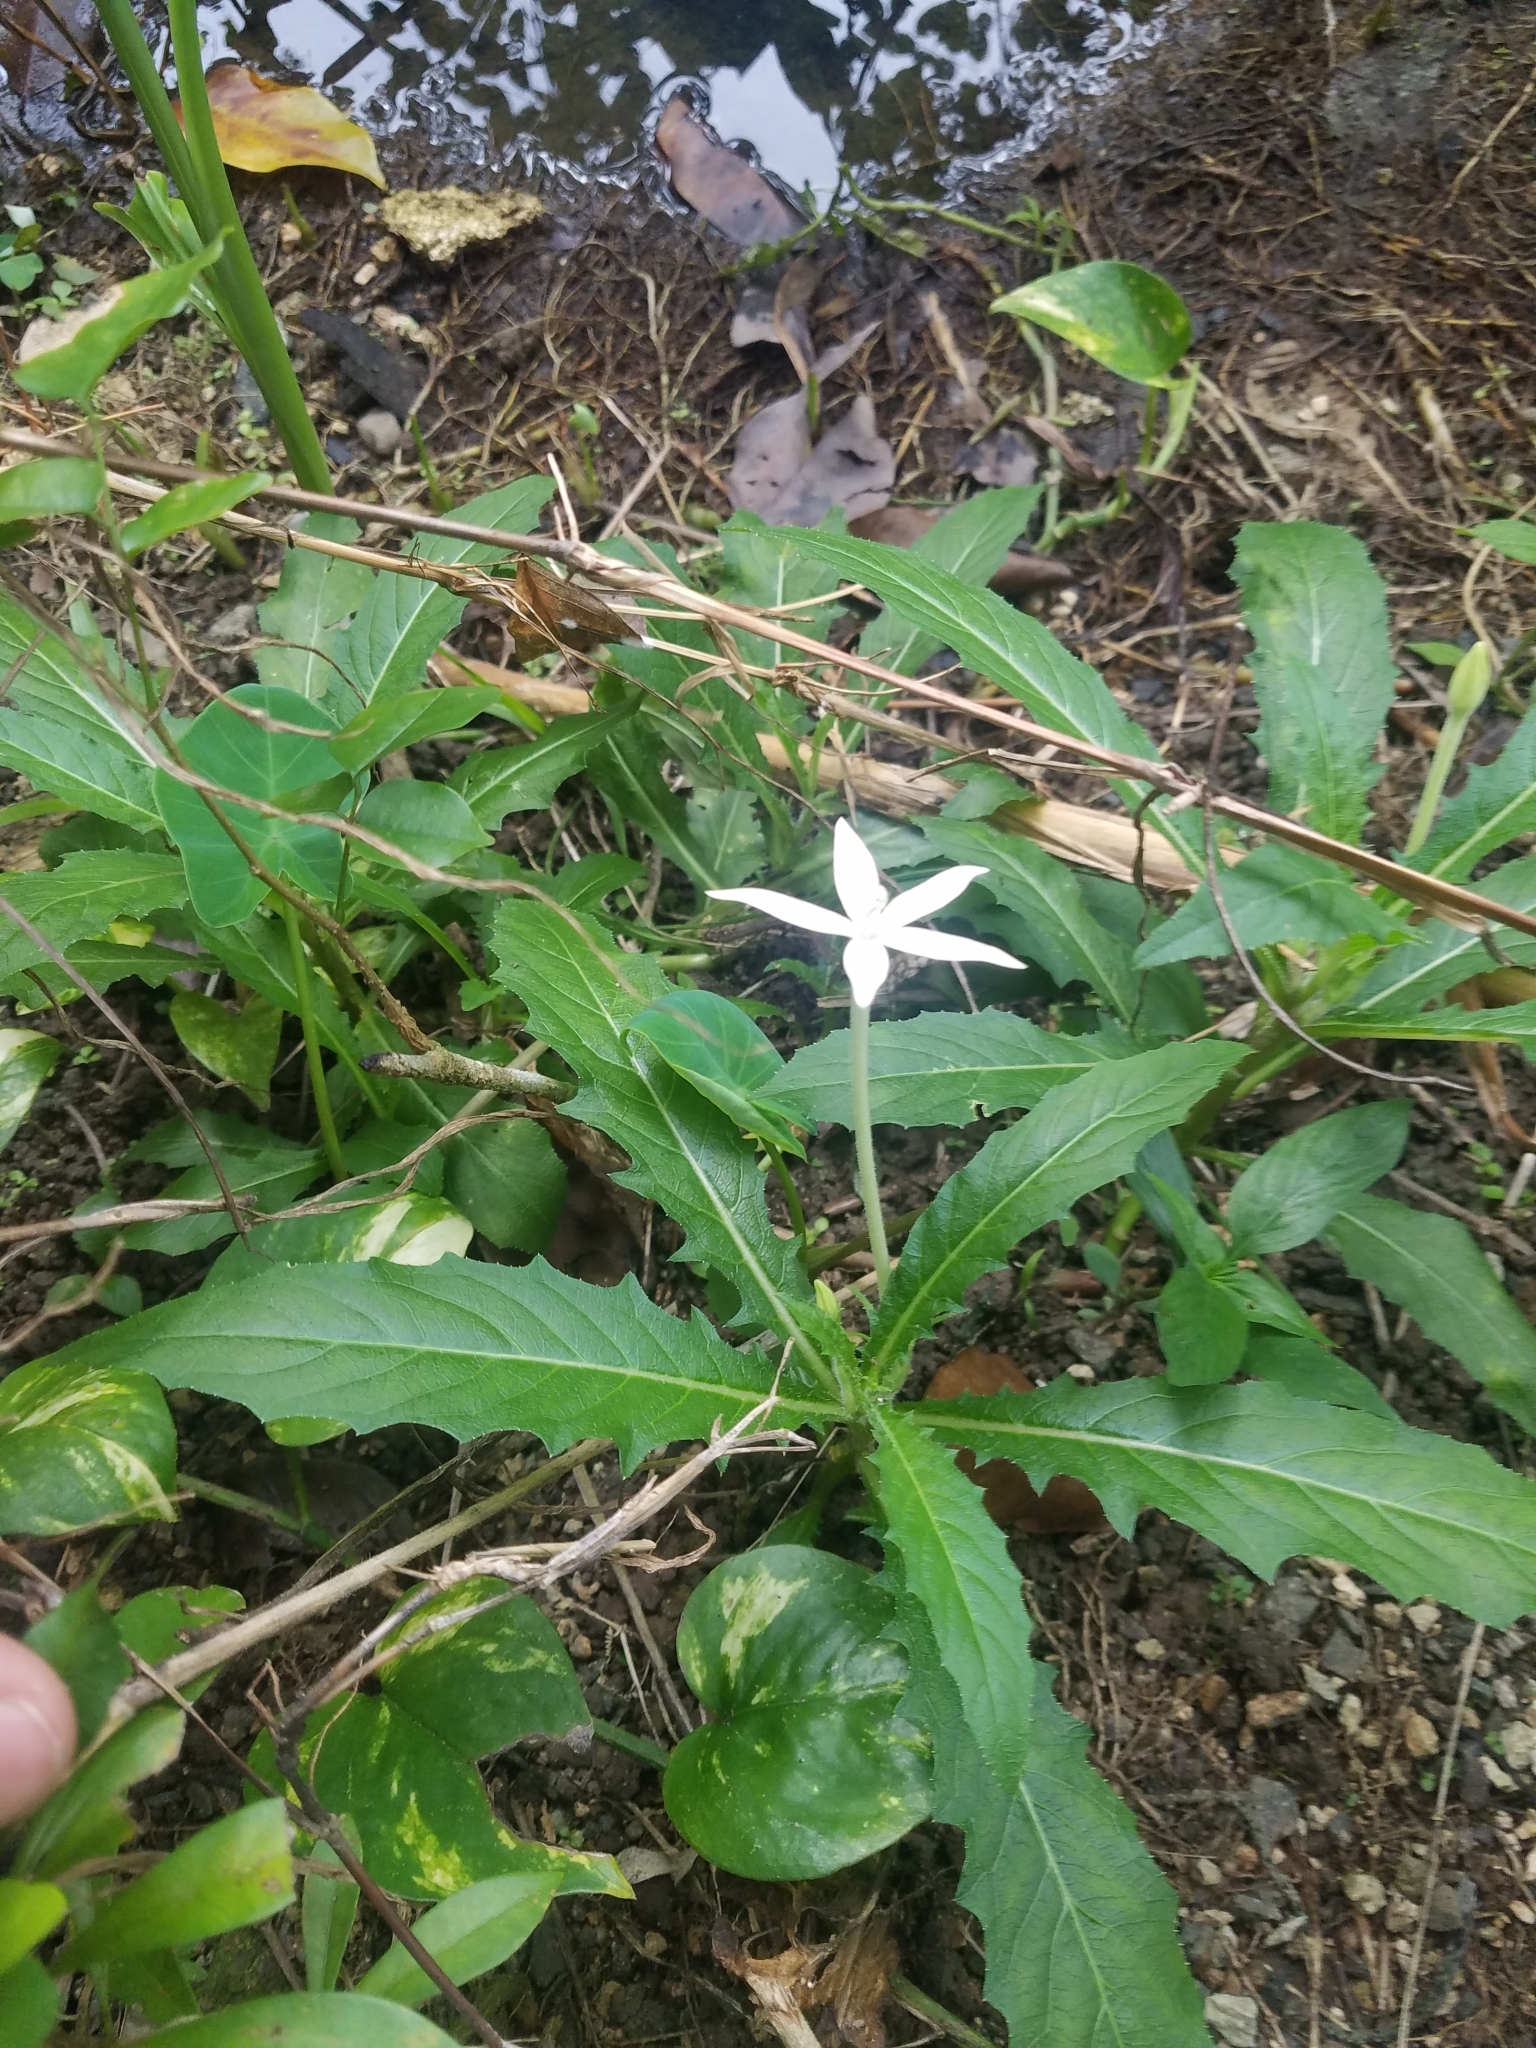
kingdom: Plantae
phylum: Tracheophyta
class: Magnoliopsida
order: Asterales
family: Campanulaceae
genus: Hippobroma
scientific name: Hippobroma longiflora
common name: Madamfate
